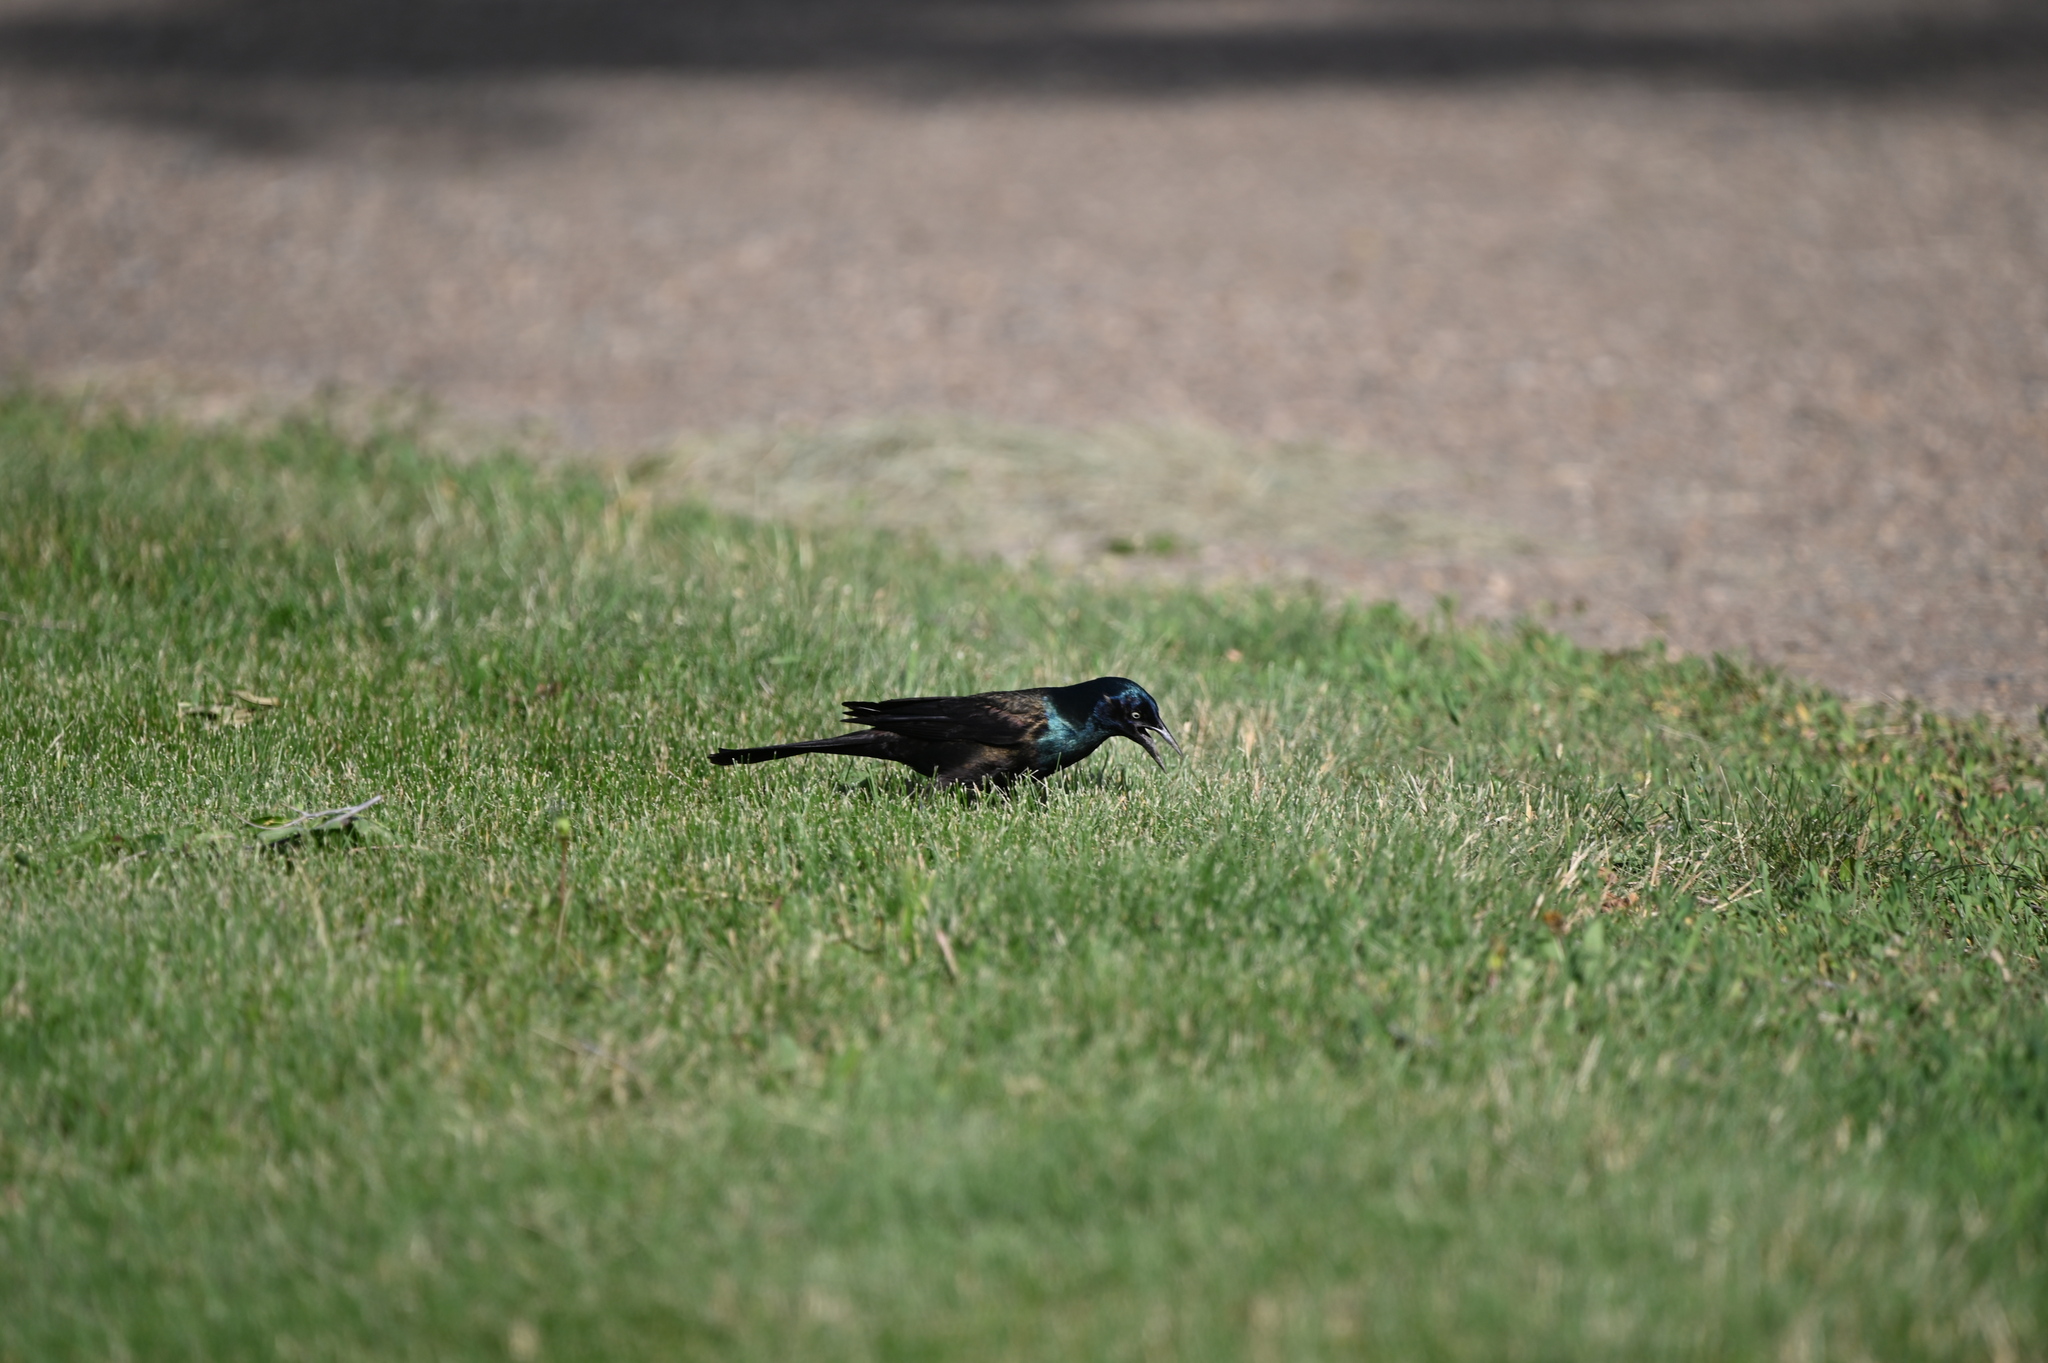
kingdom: Animalia
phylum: Chordata
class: Aves
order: Passeriformes
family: Icteridae
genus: Quiscalus
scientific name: Quiscalus quiscula
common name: Common grackle
